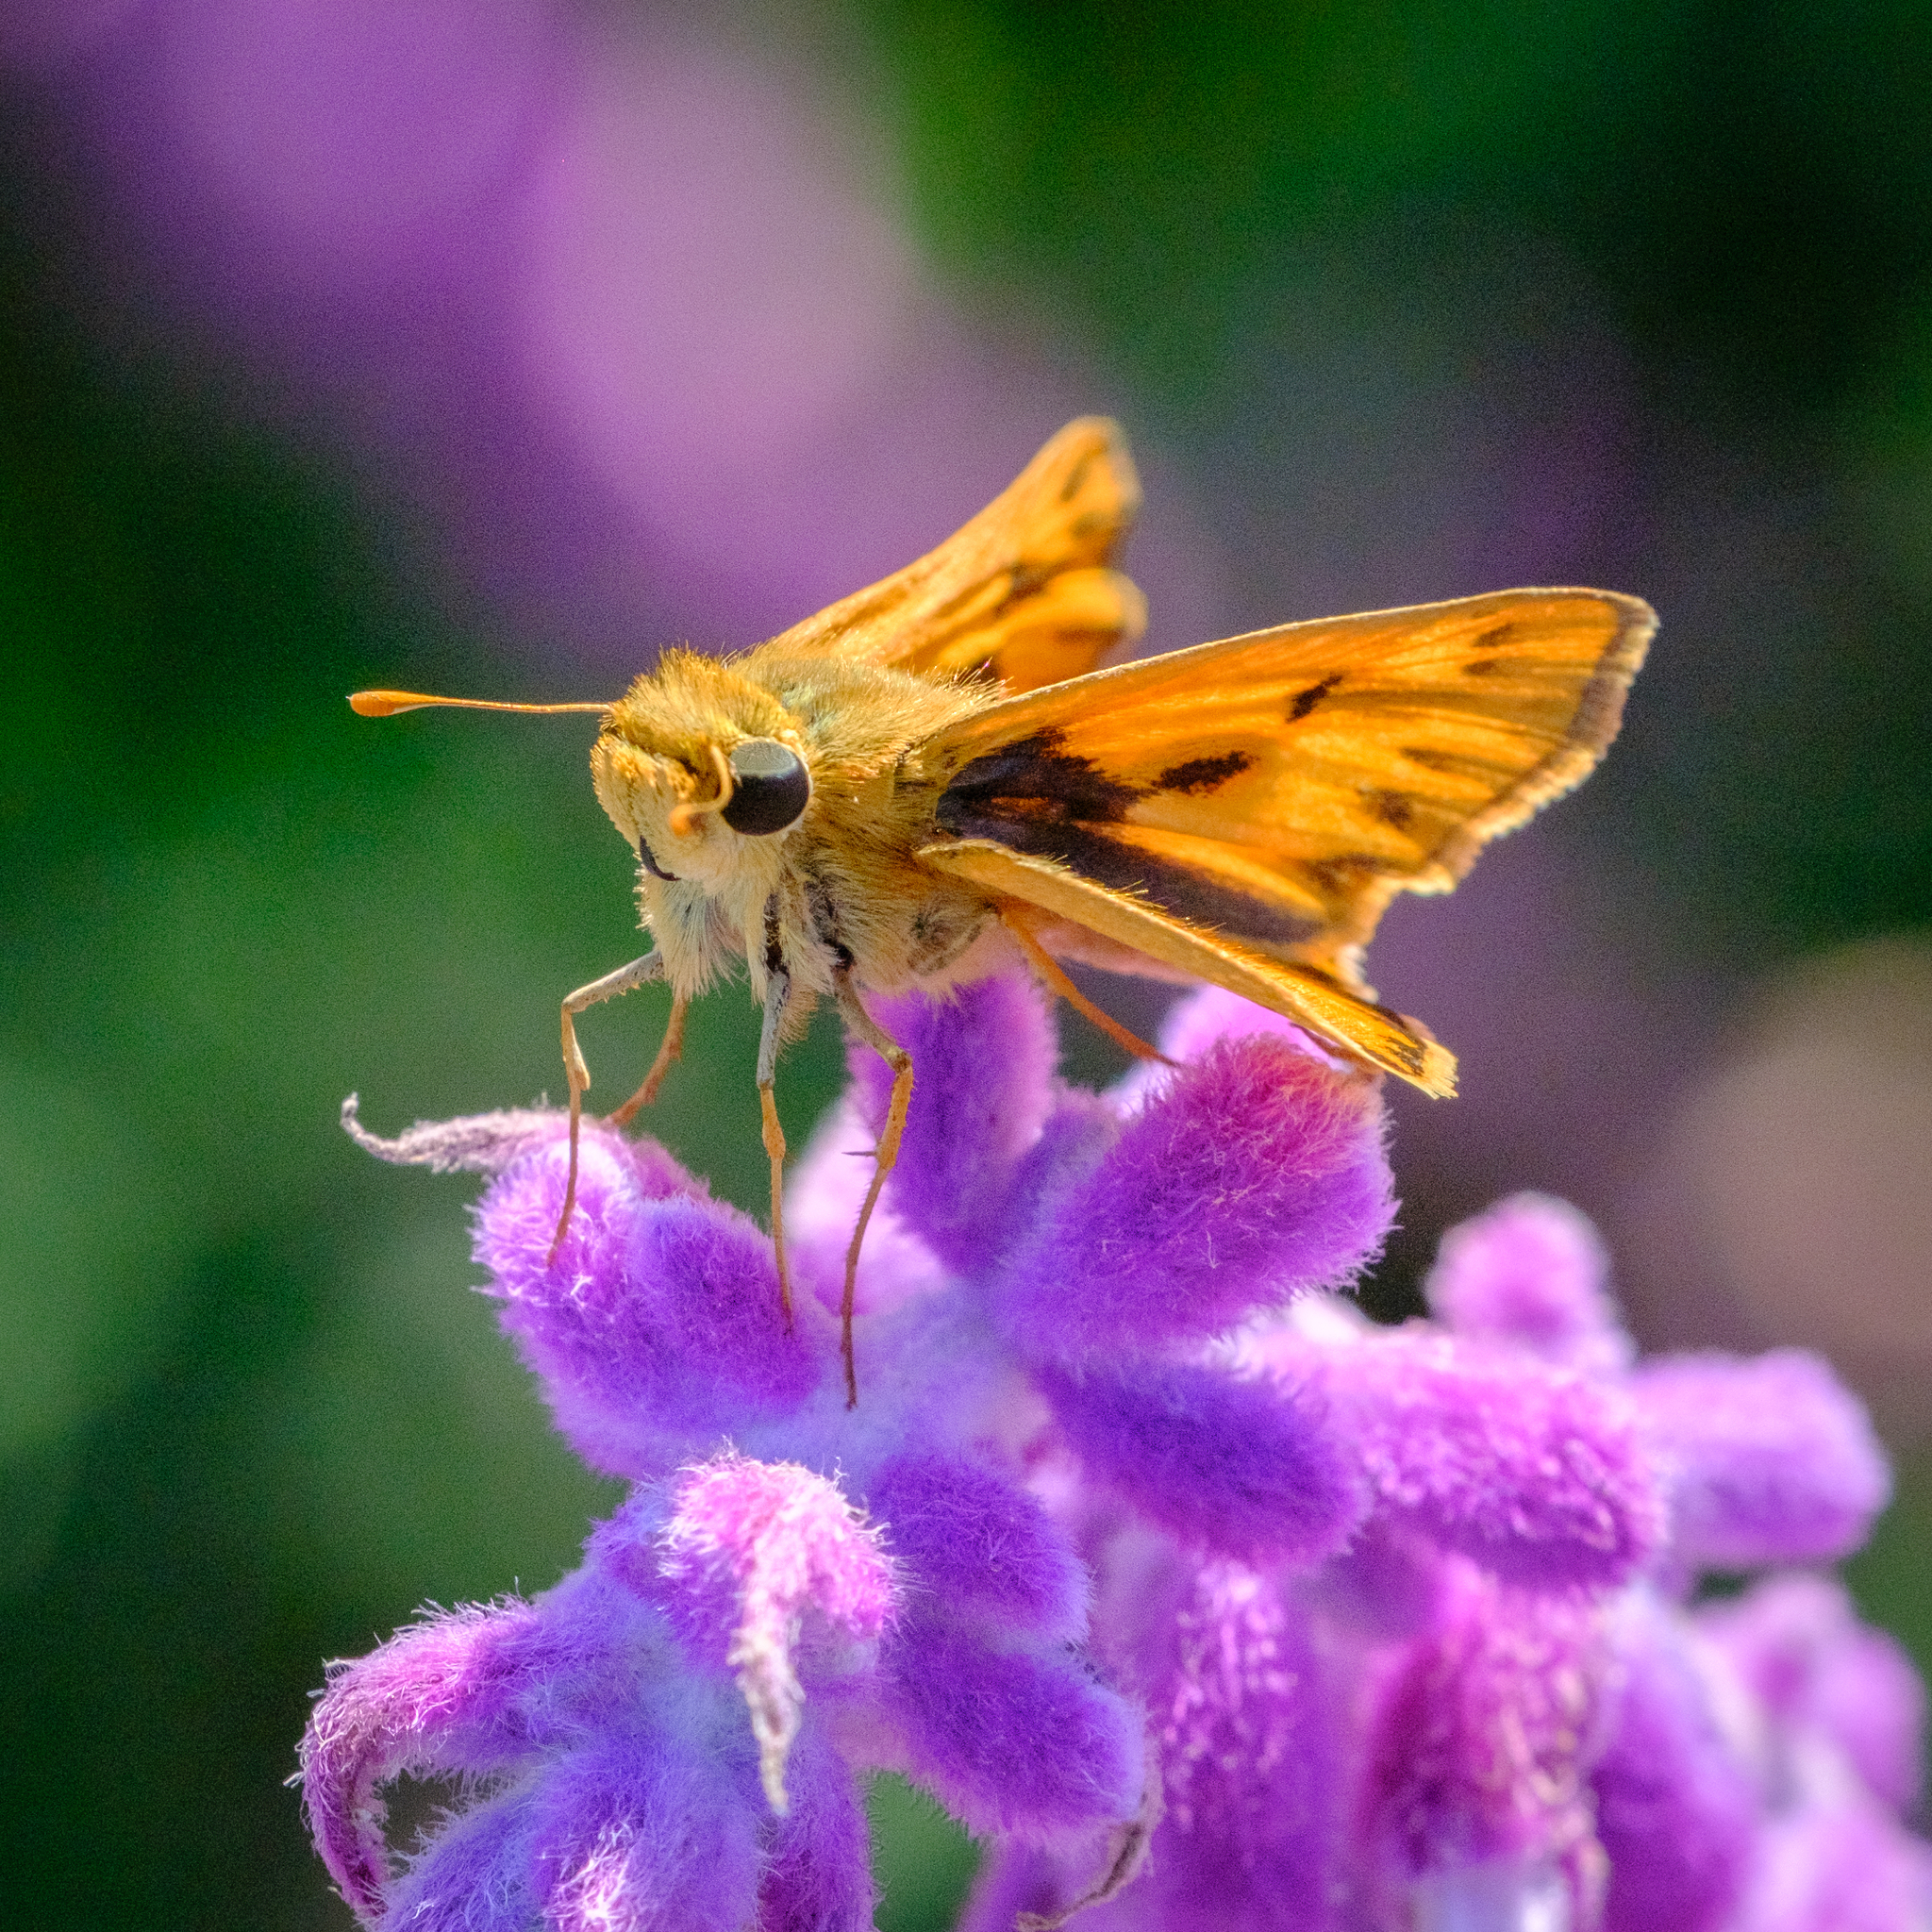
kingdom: Animalia
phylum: Arthropoda
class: Insecta
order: Lepidoptera
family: Hesperiidae
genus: Hylephila
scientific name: Hylephila phyleus
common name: Fiery skipper
